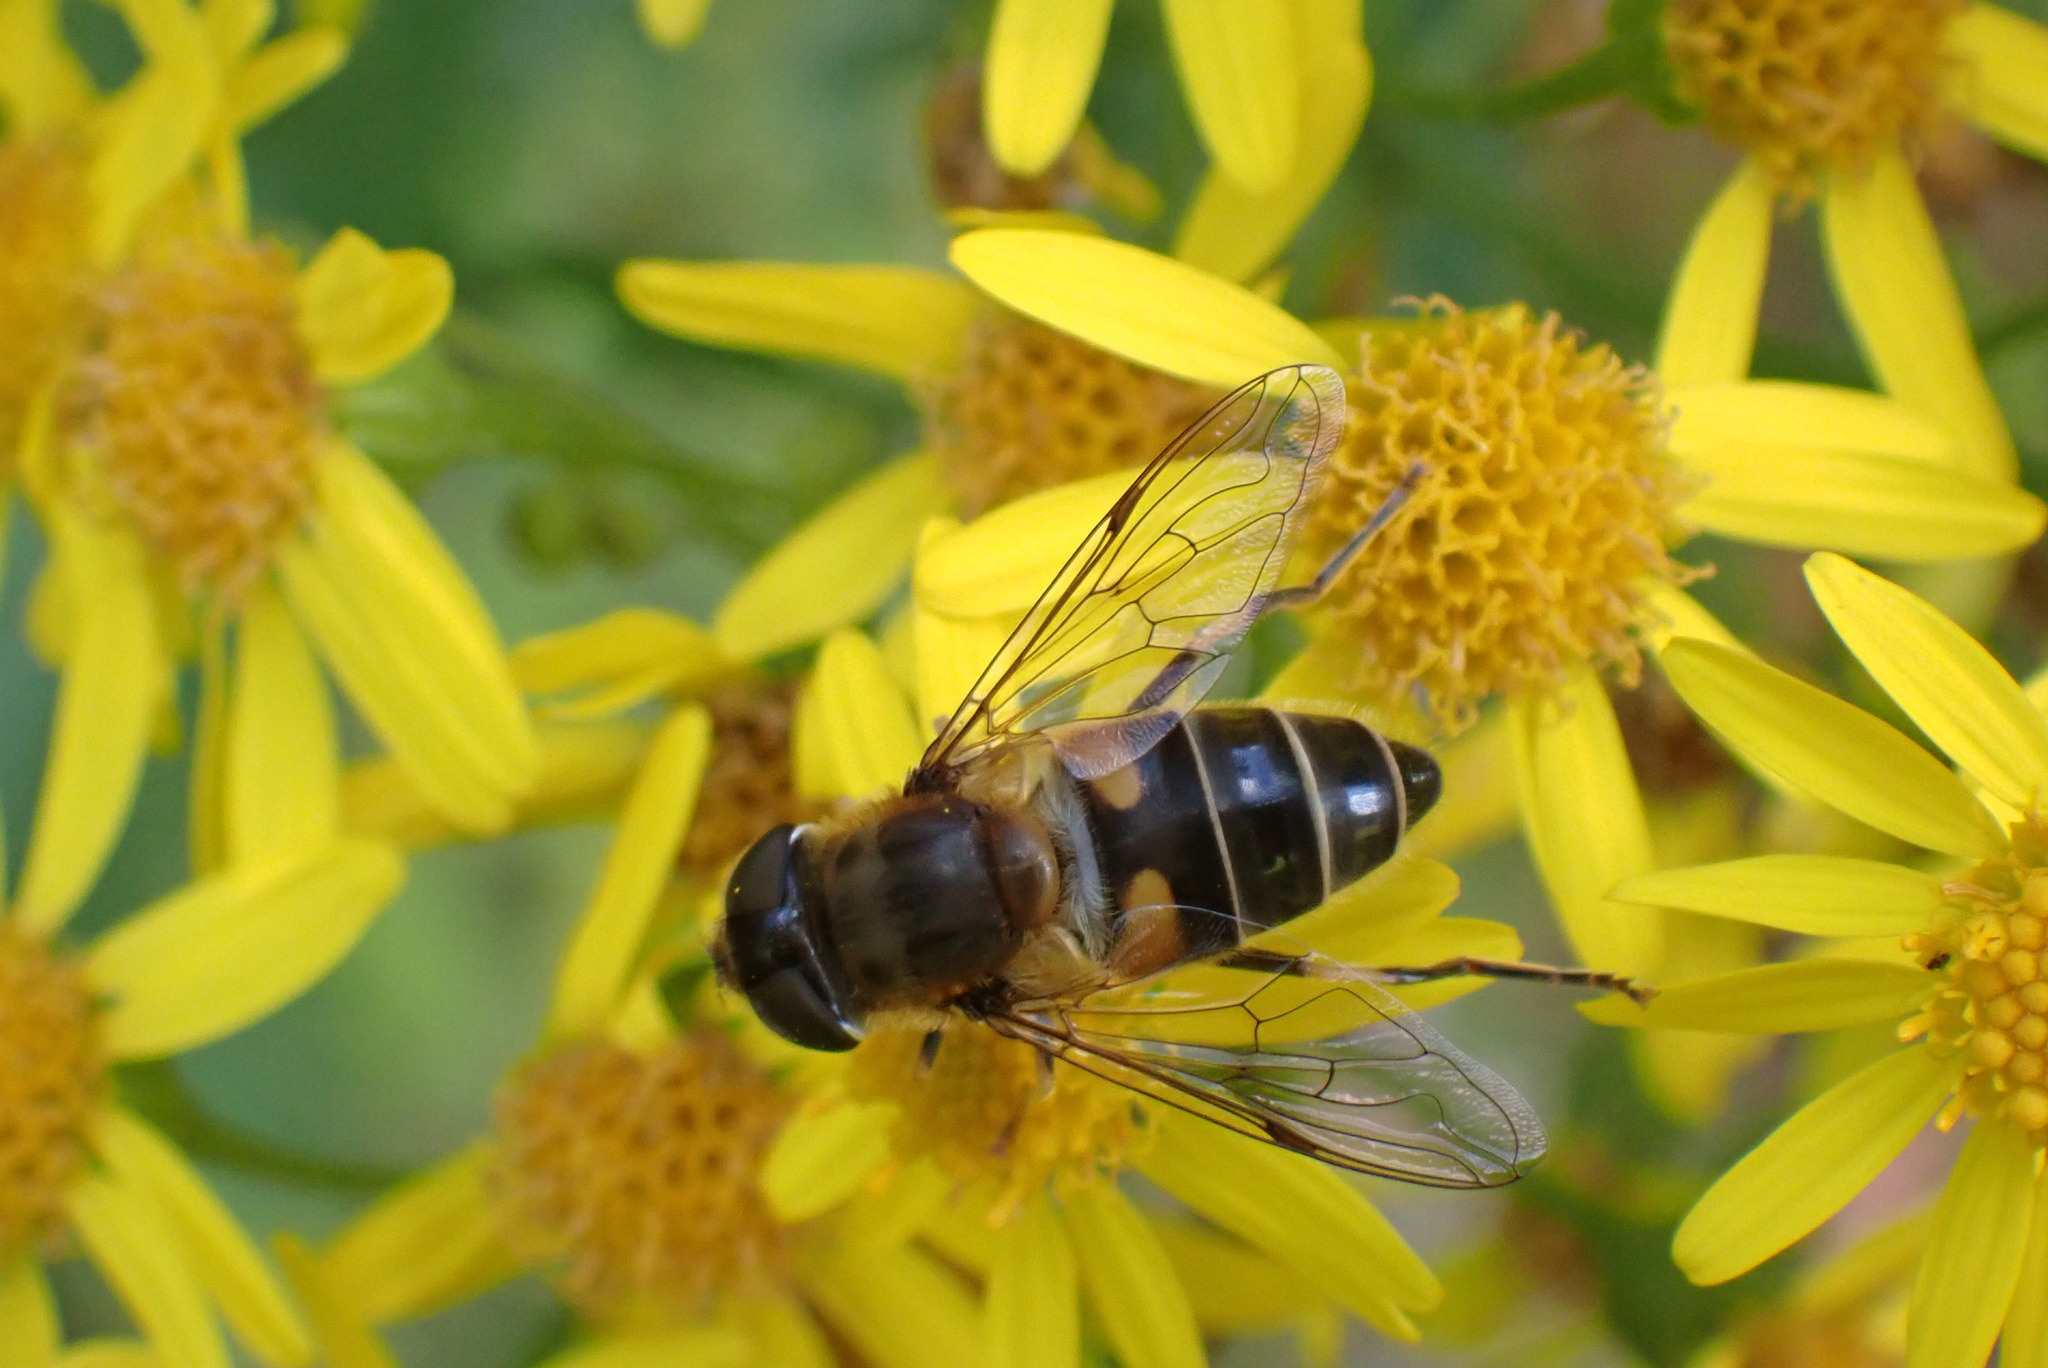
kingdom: Animalia
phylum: Arthropoda
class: Insecta
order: Diptera
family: Syrphidae
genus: Eristalis
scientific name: Eristalis pertinax
